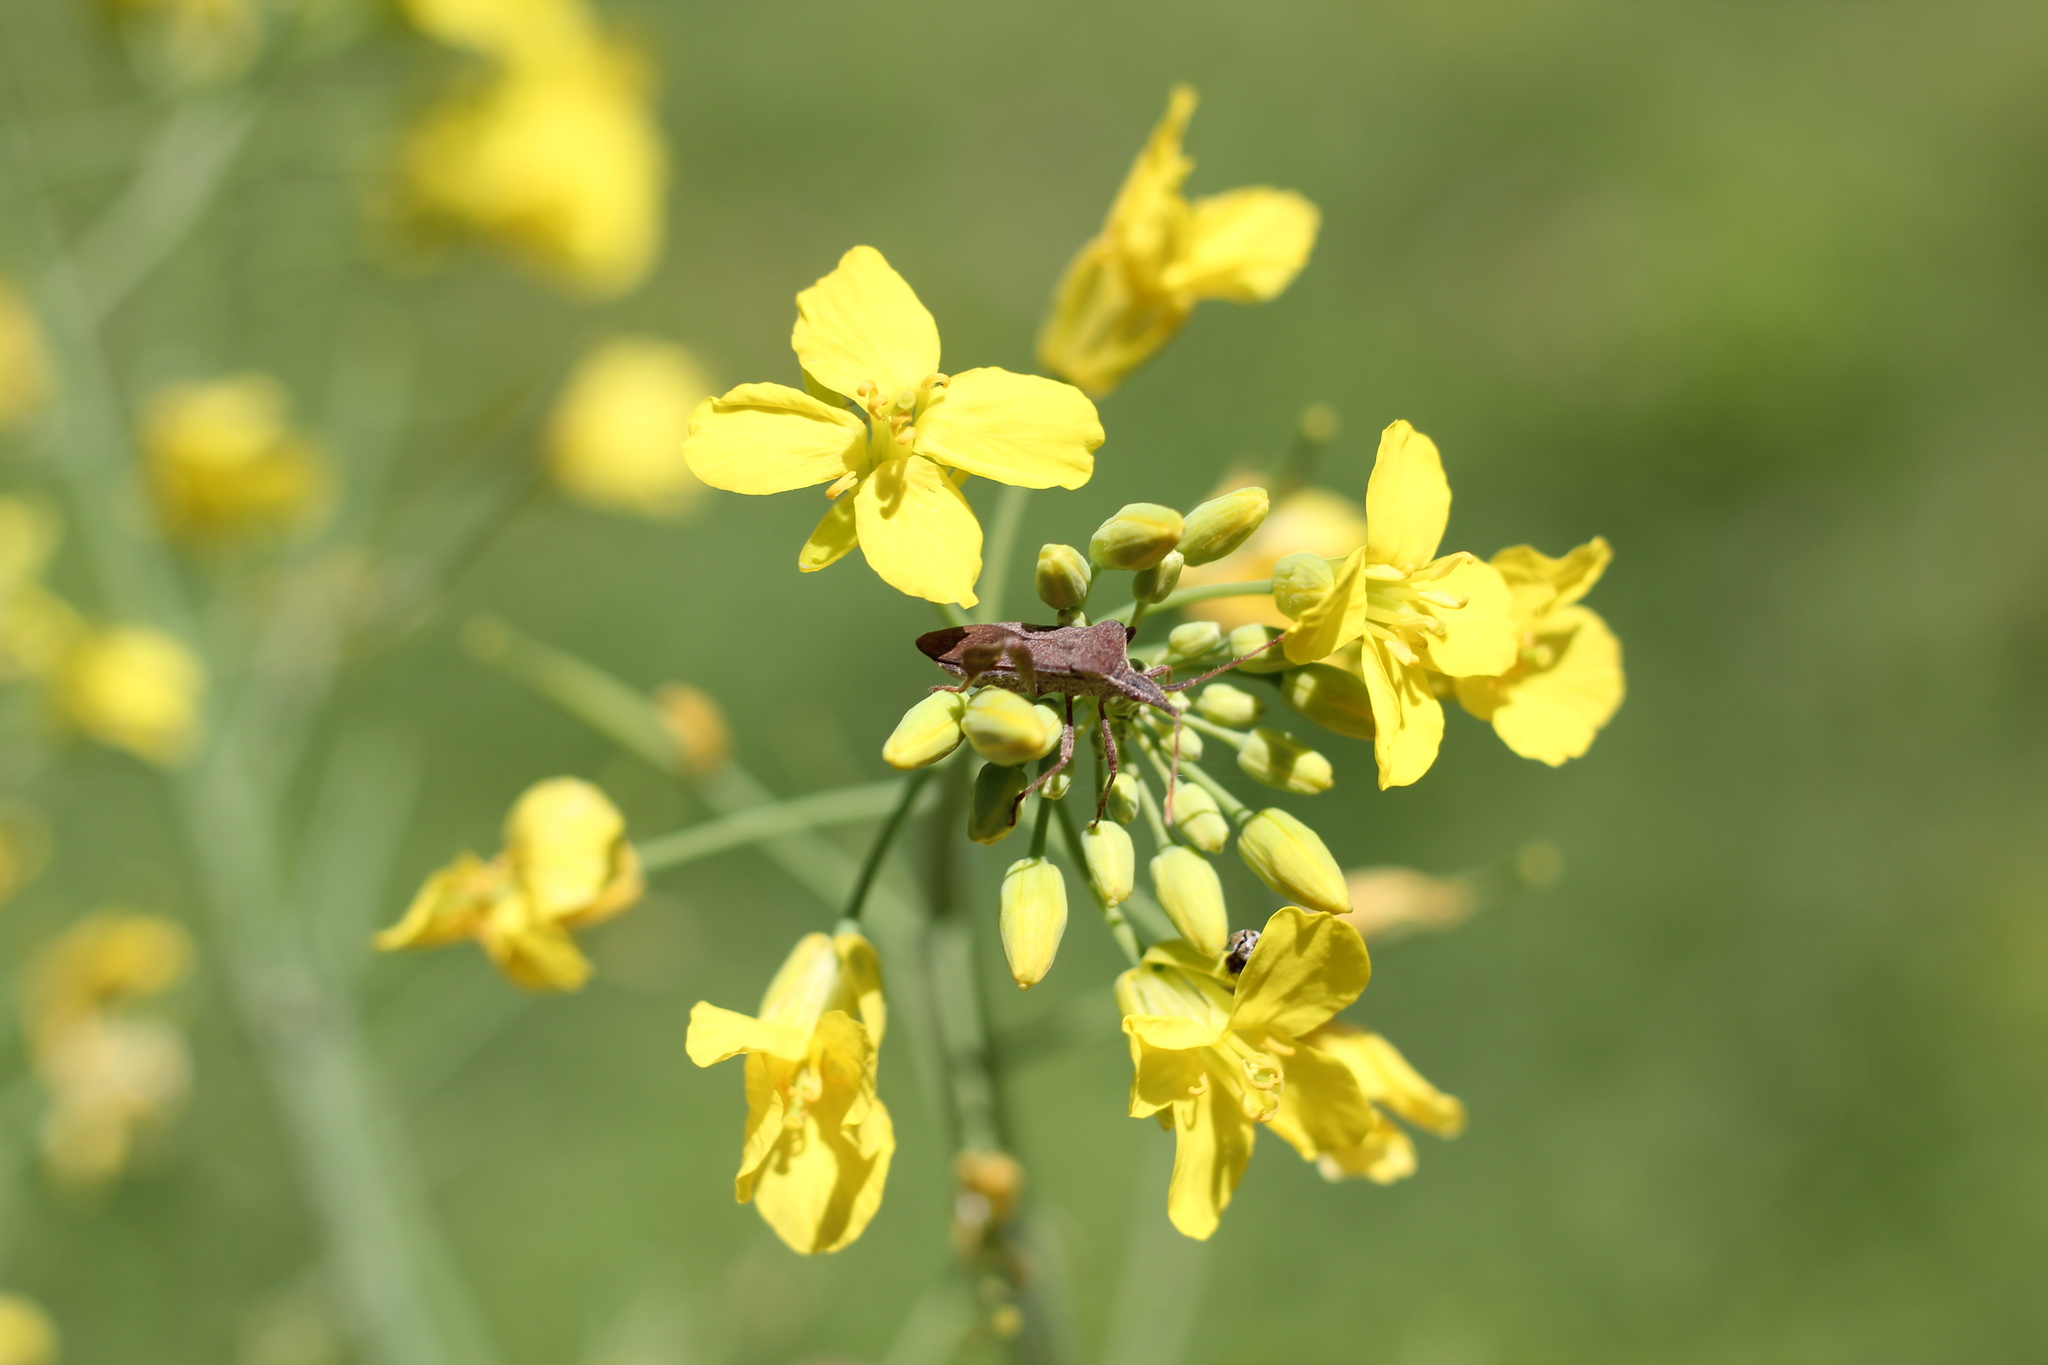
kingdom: Animalia
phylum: Arthropoda
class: Insecta
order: Hemiptera
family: Coreidae
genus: Leptoglossus
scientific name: Leptoglossus concaviusculus
